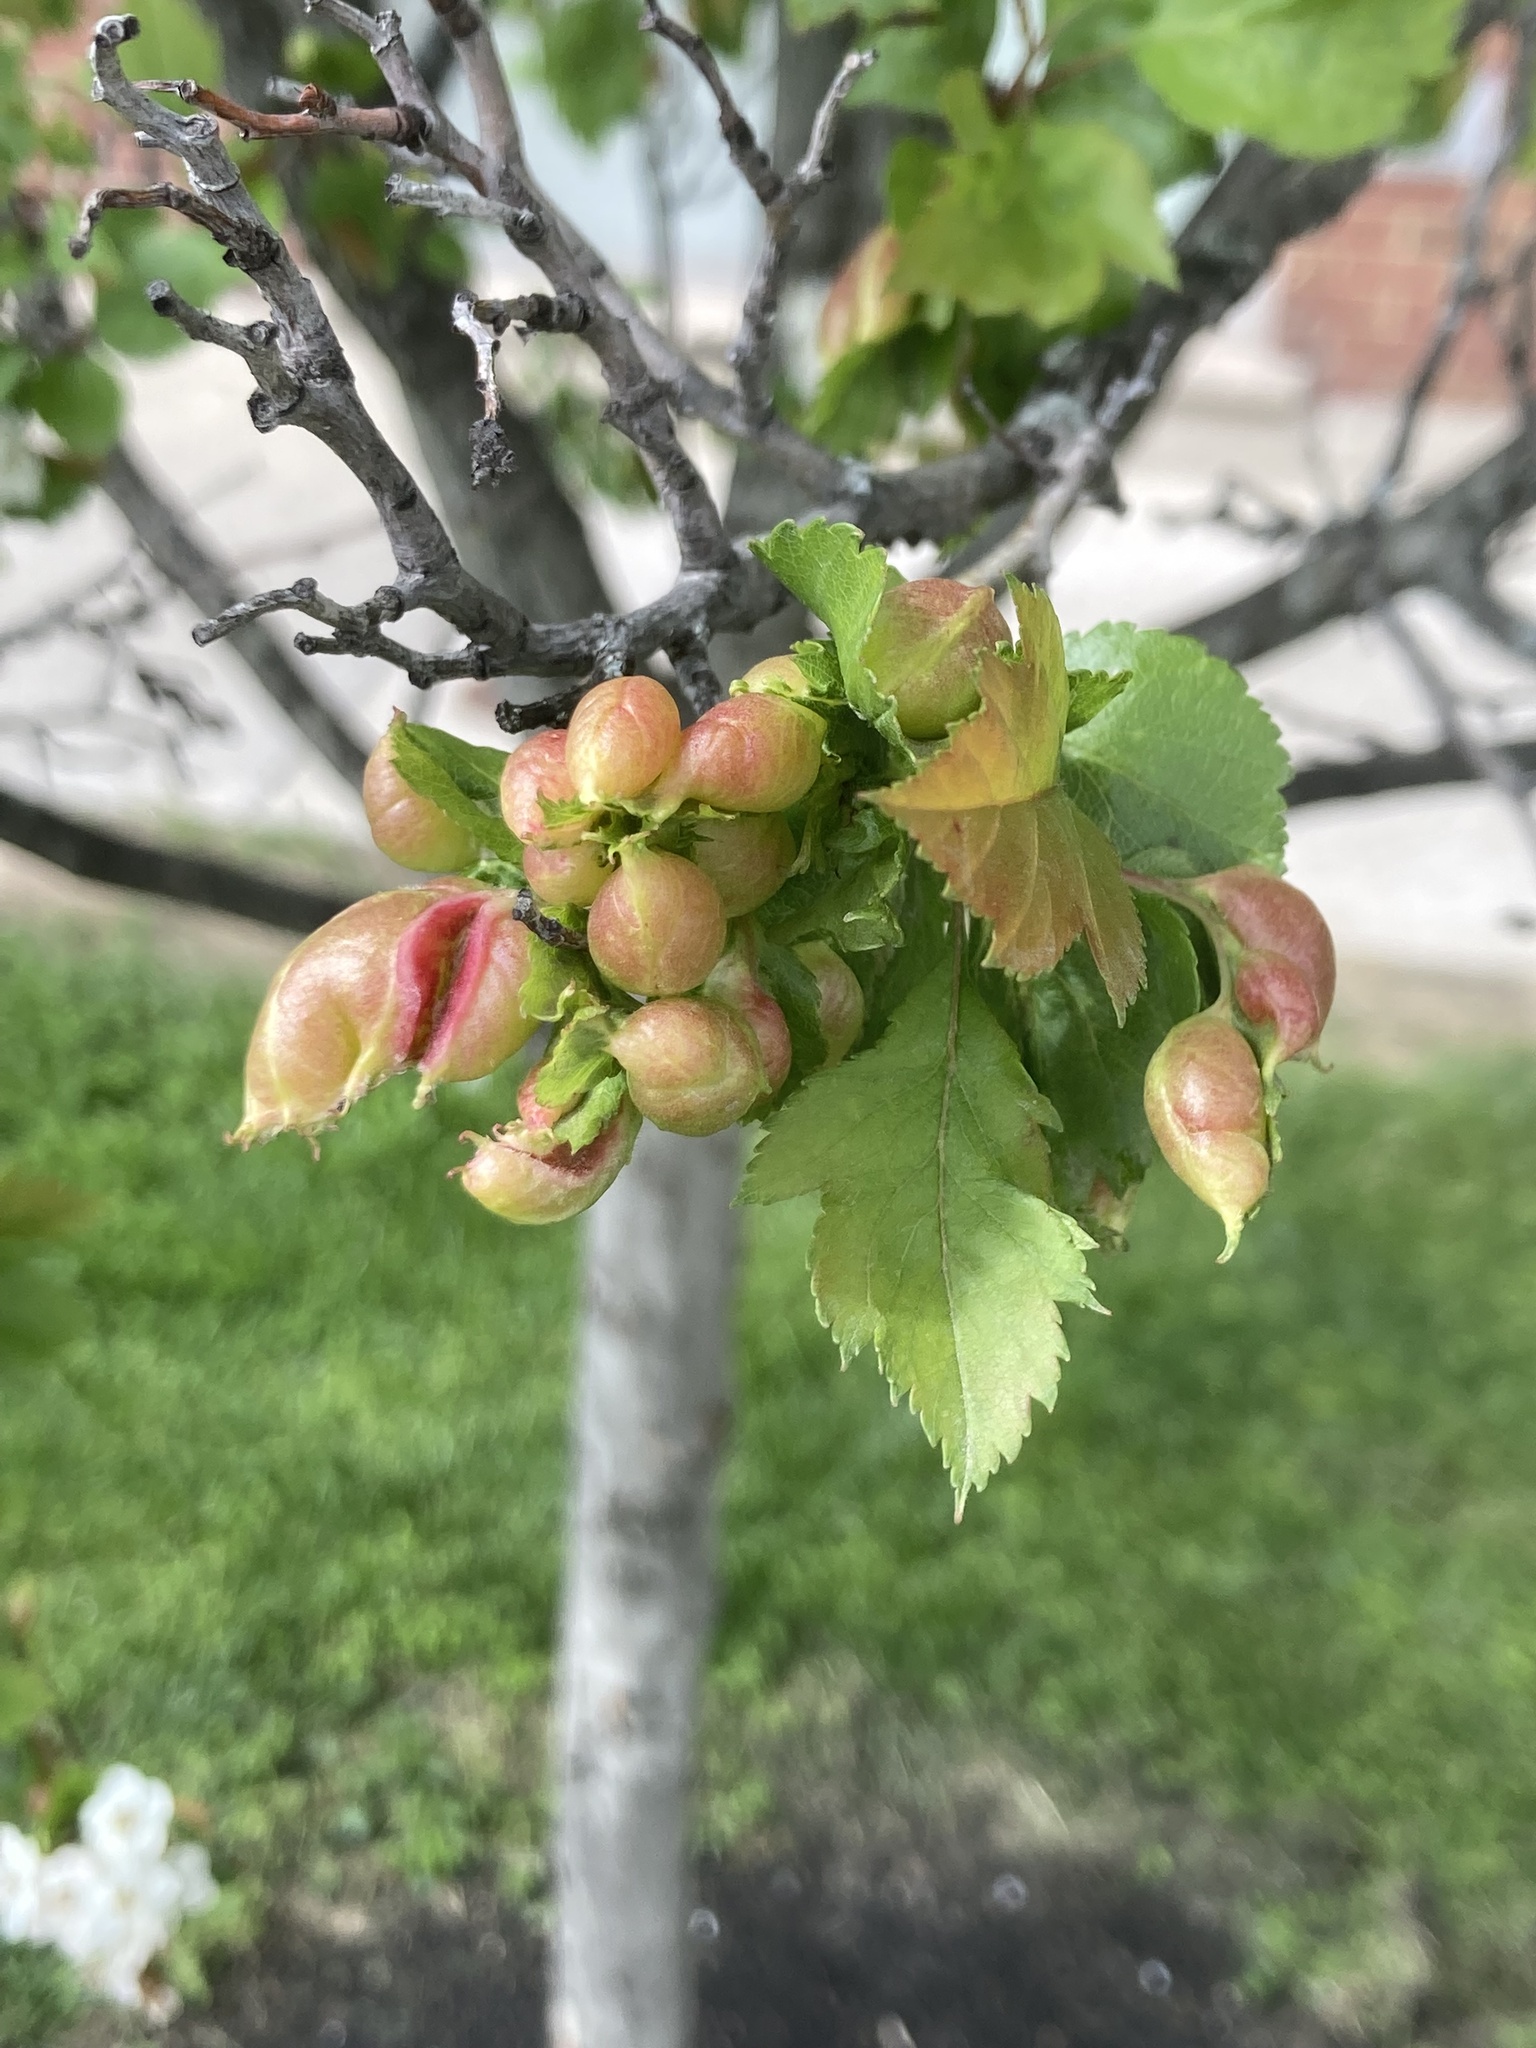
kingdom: Animalia
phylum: Arthropoda
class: Insecta
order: Diptera
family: Cecidomyiidae
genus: Blaesodiplosis
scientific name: Blaesodiplosis venae
